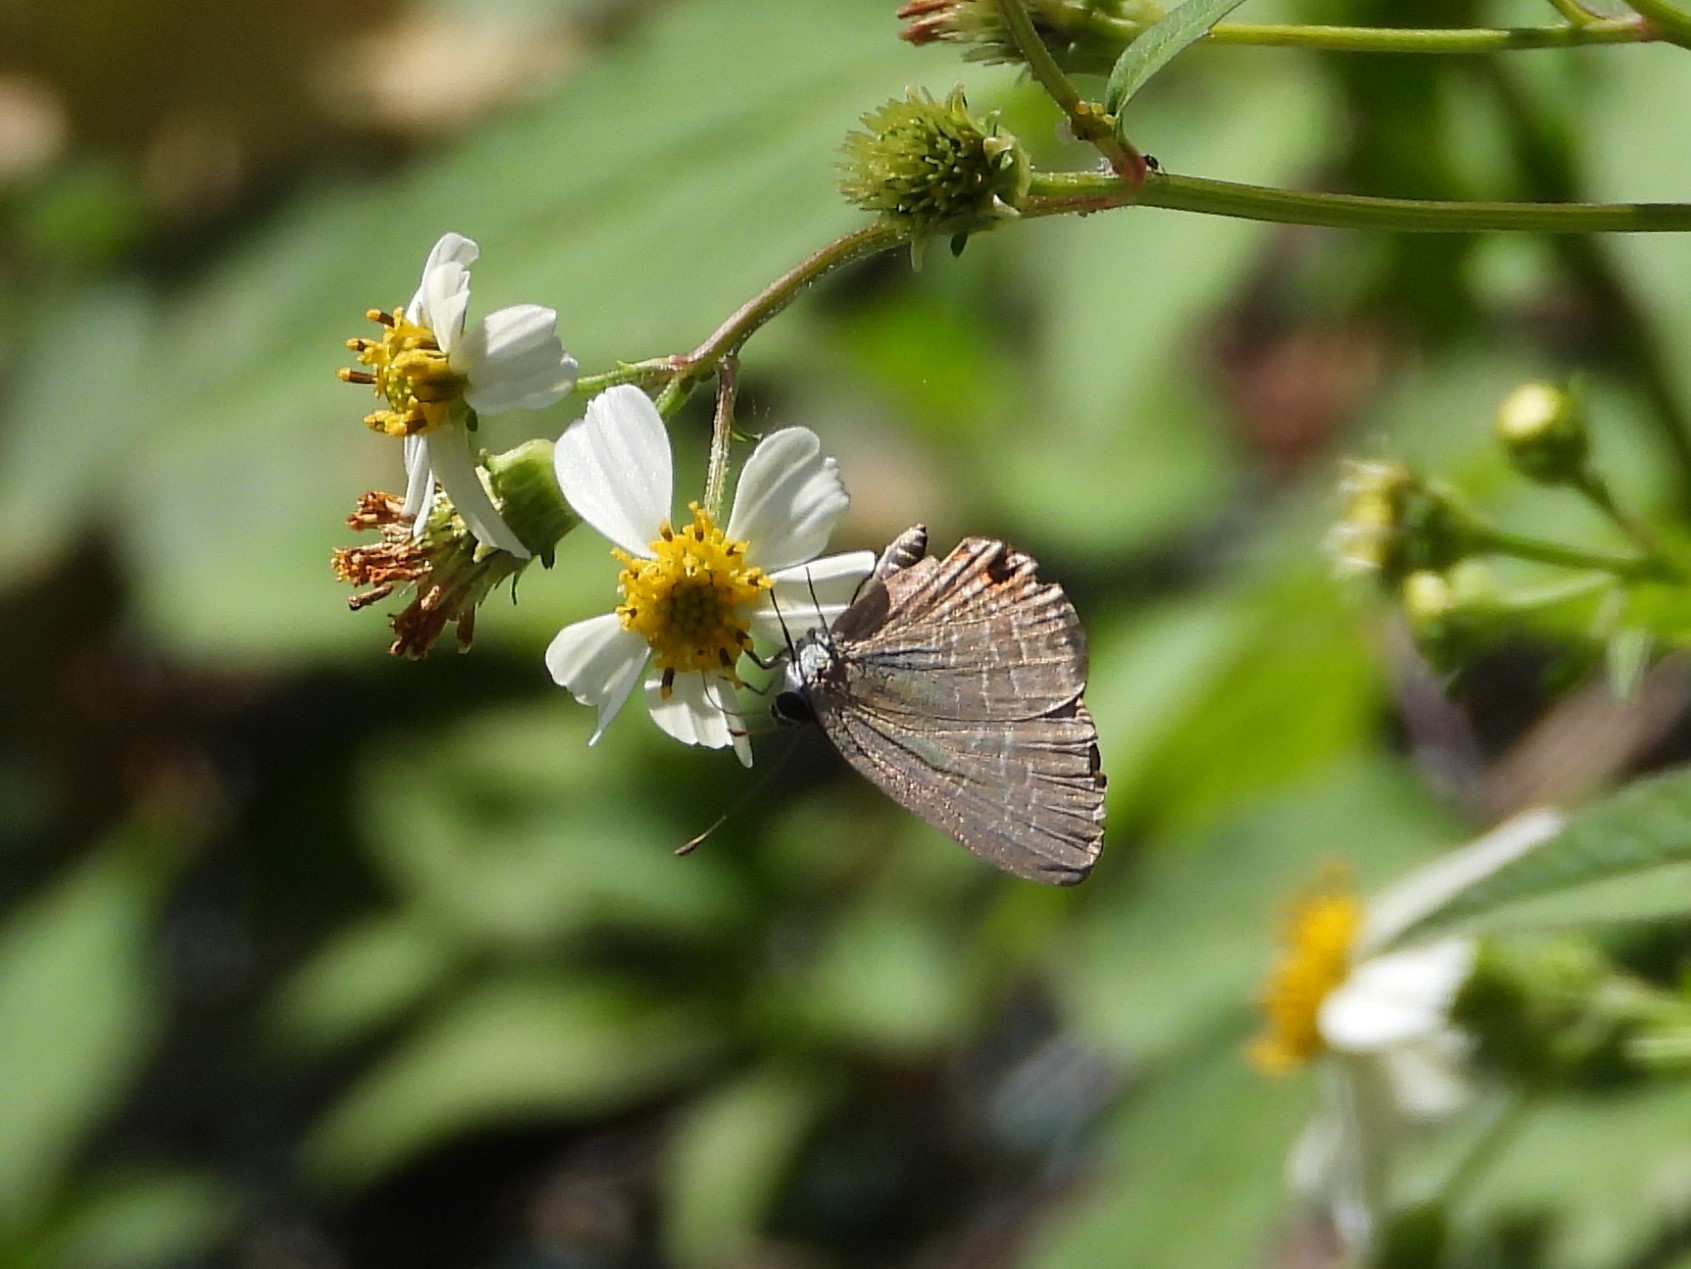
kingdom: Animalia
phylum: Arthropoda
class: Insecta
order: Lepidoptera
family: Lycaenidae
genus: Jamides
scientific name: Jamides bochus
